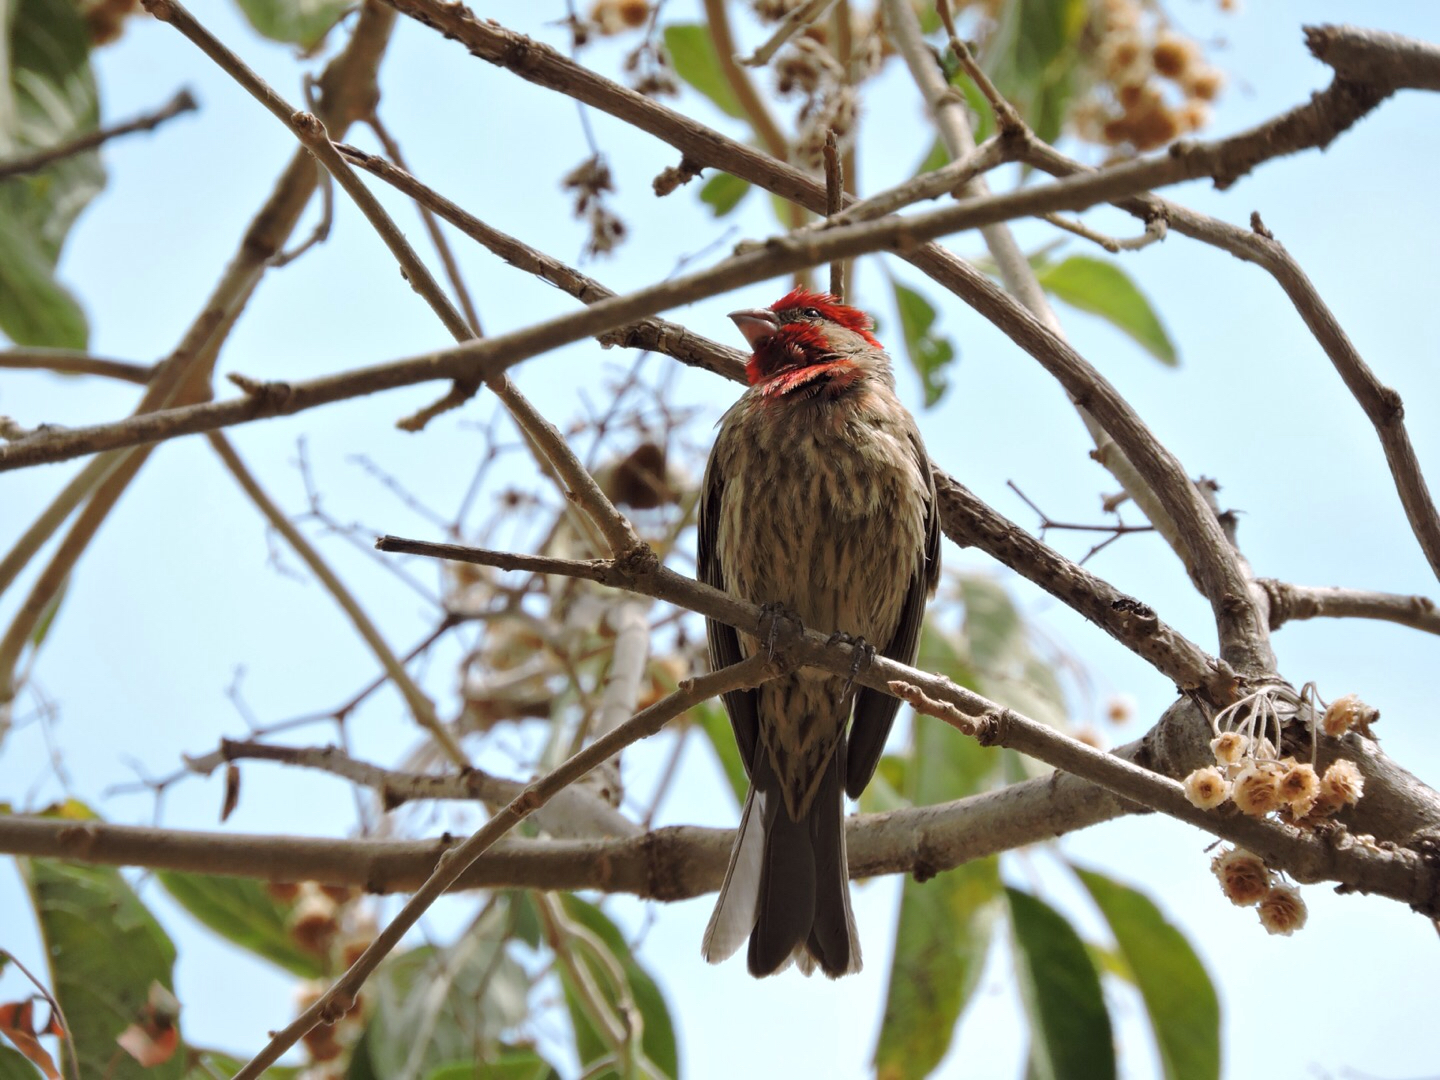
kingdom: Animalia
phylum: Chordata
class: Aves
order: Passeriformes
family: Fringillidae
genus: Haemorhous
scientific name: Haemorhous mexicanus
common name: House finch
